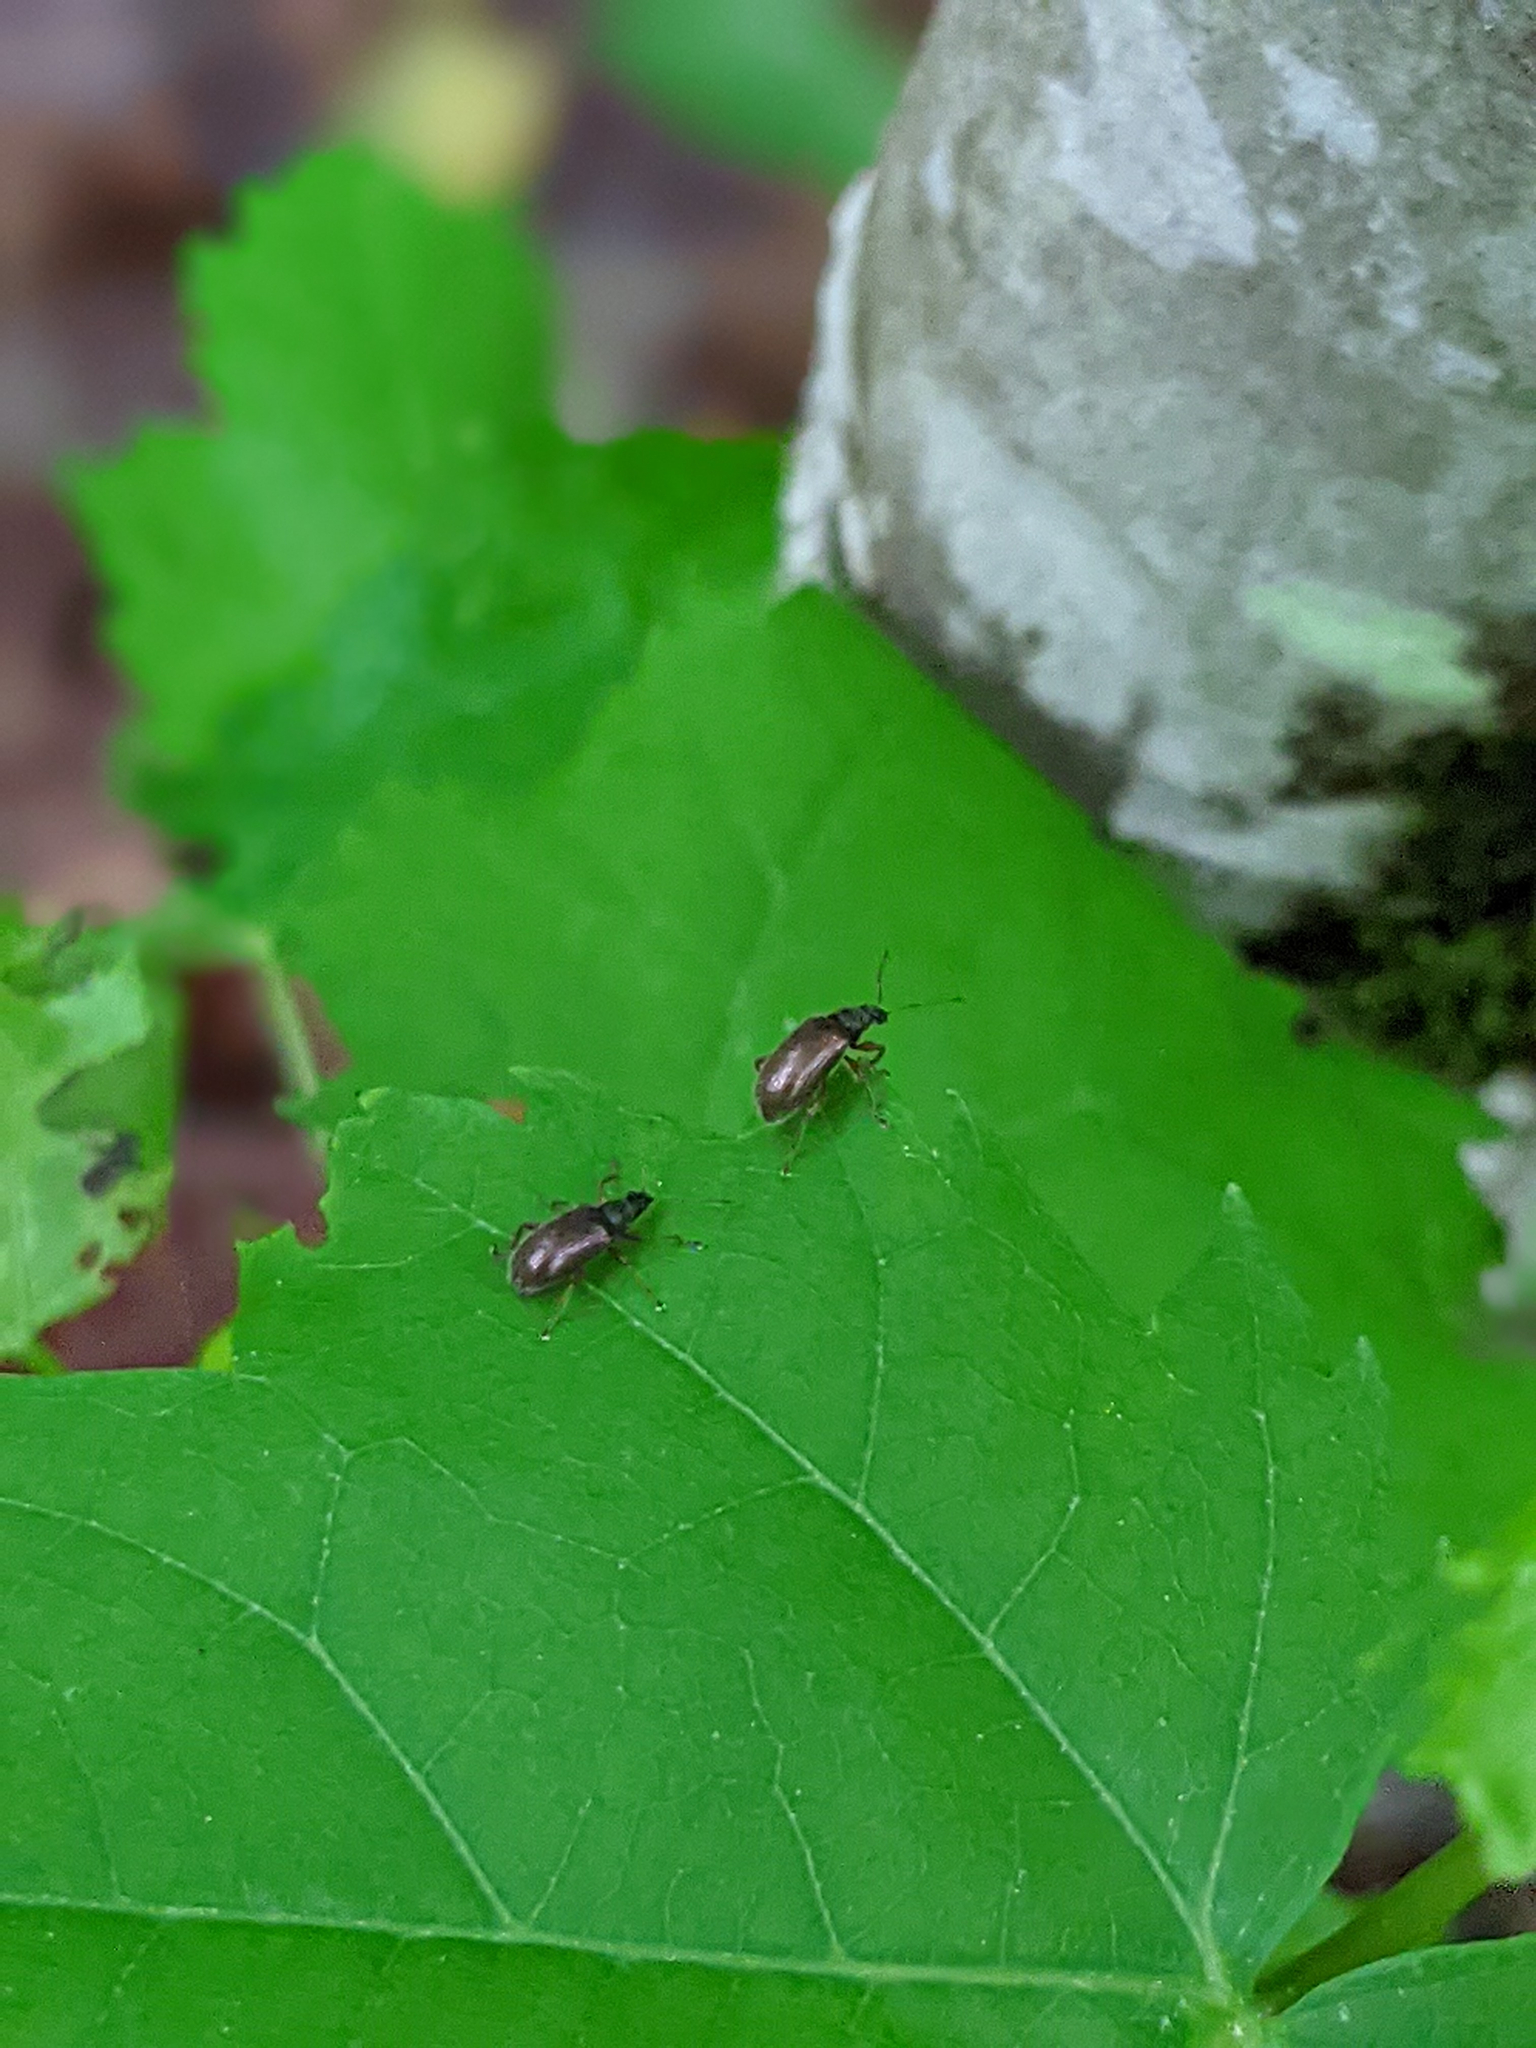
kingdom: Animalia
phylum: Arthropoda
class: Insecta
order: Coleoptera
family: Curculionidae
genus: Phyllobius
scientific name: Phyllobius oblongus
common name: Brown leaf weevil
